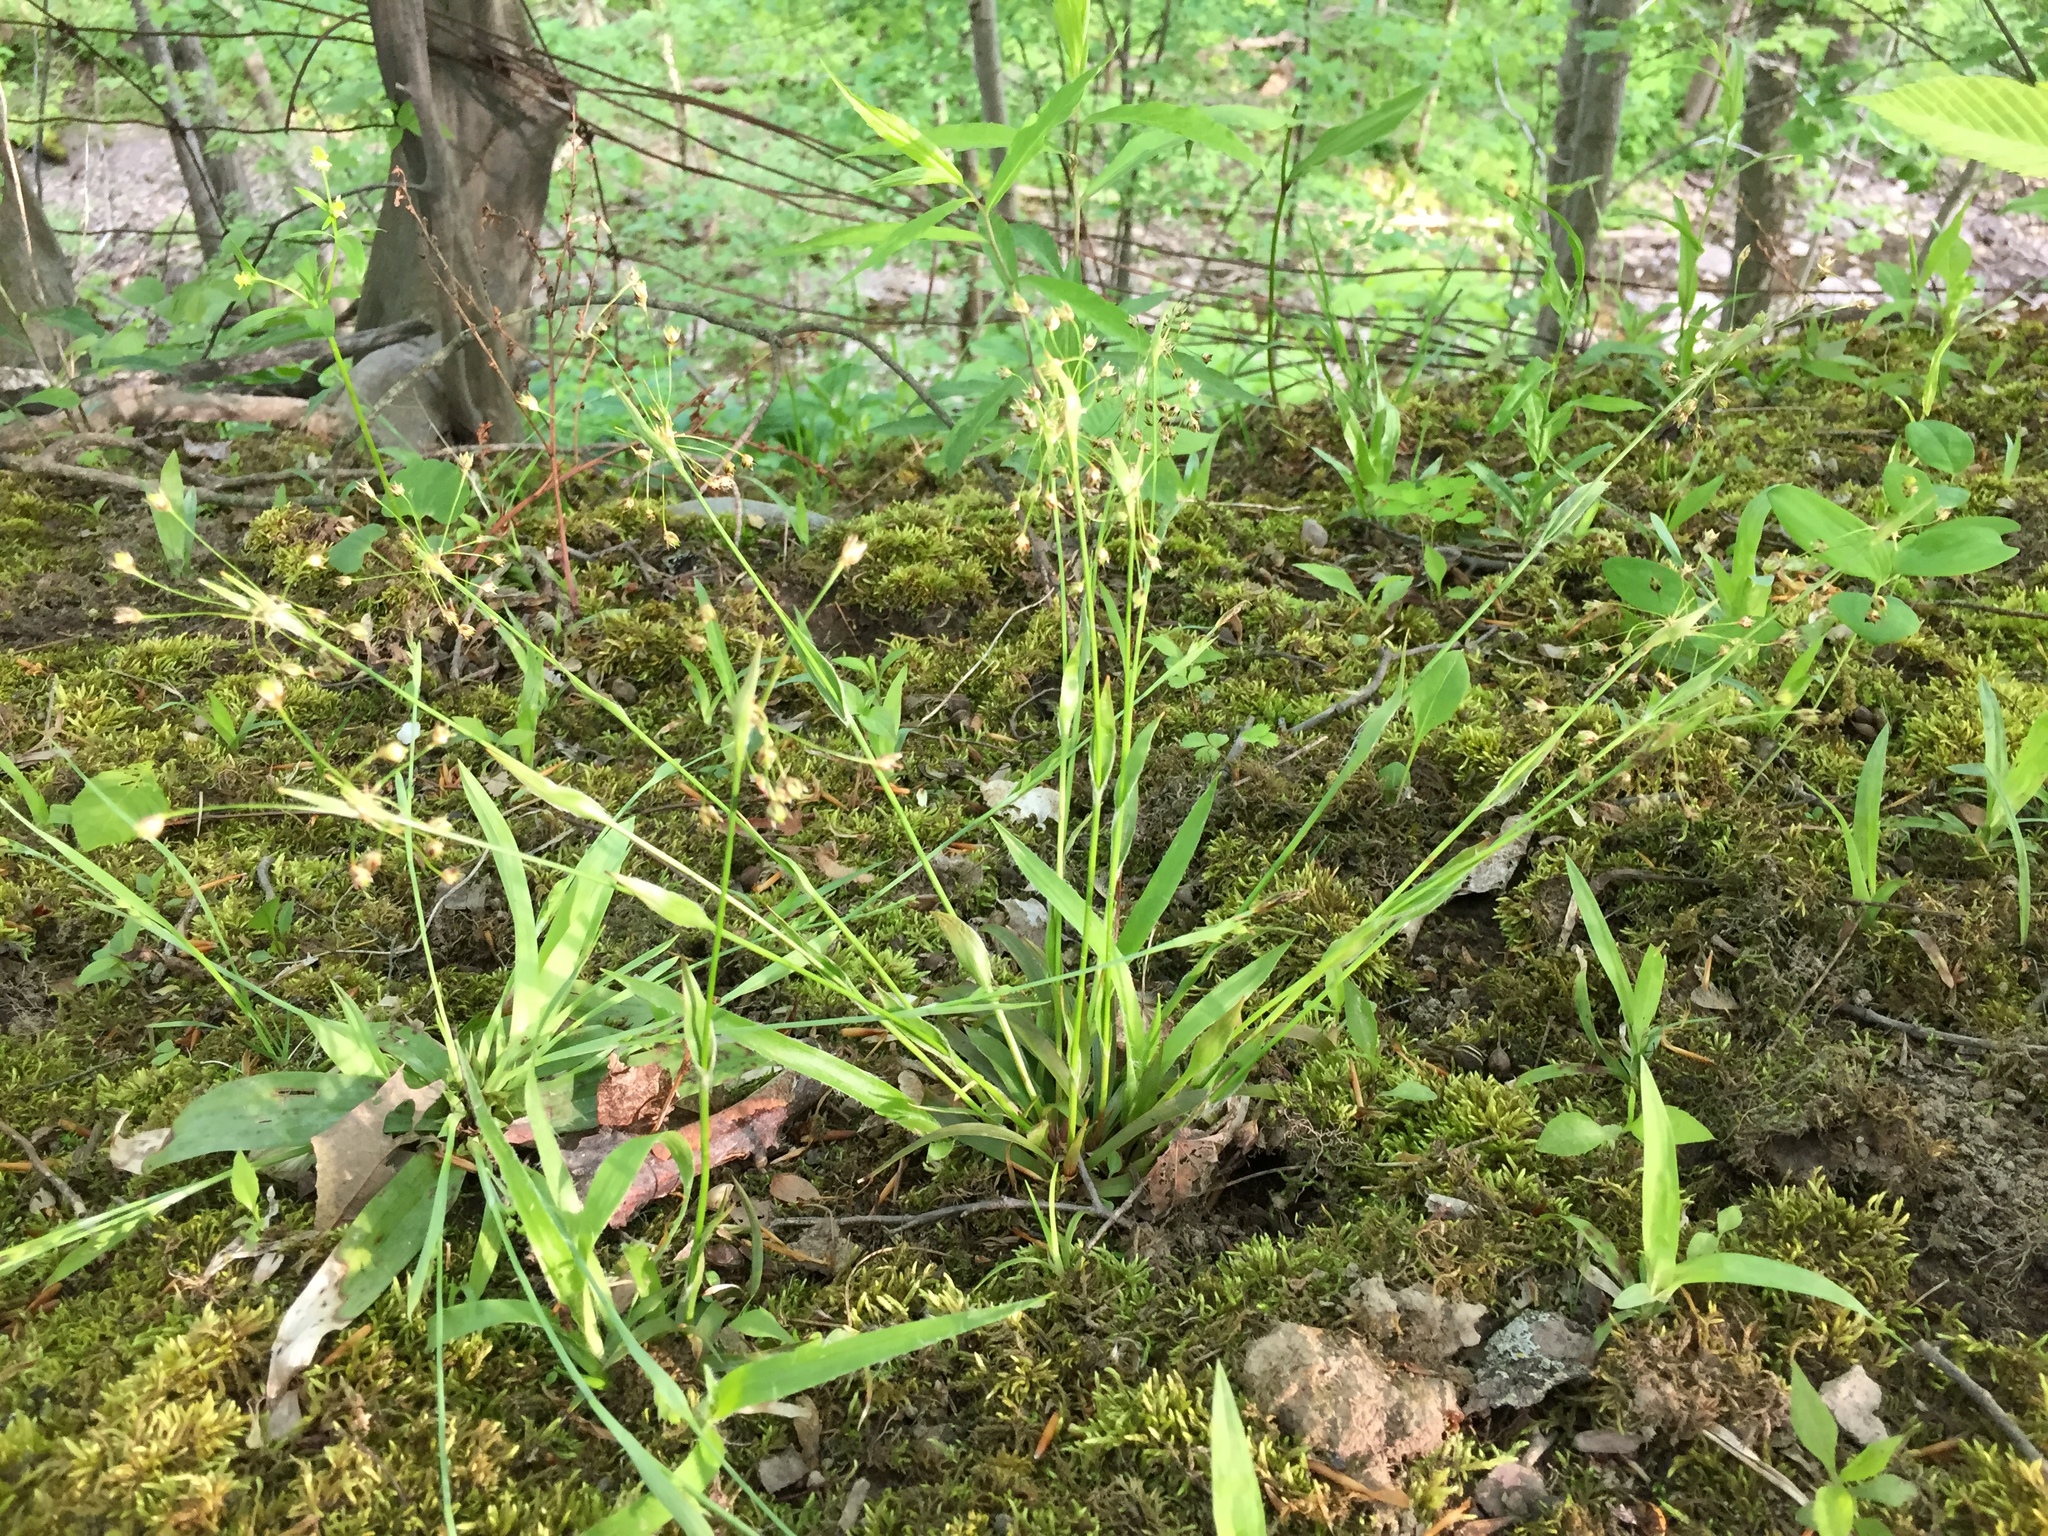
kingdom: Plantae
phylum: Tracheophyta
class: Liliopsida
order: Poales
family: Juncaceae
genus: Luzula
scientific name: Luzula acuminata
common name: Hairy woodrush
